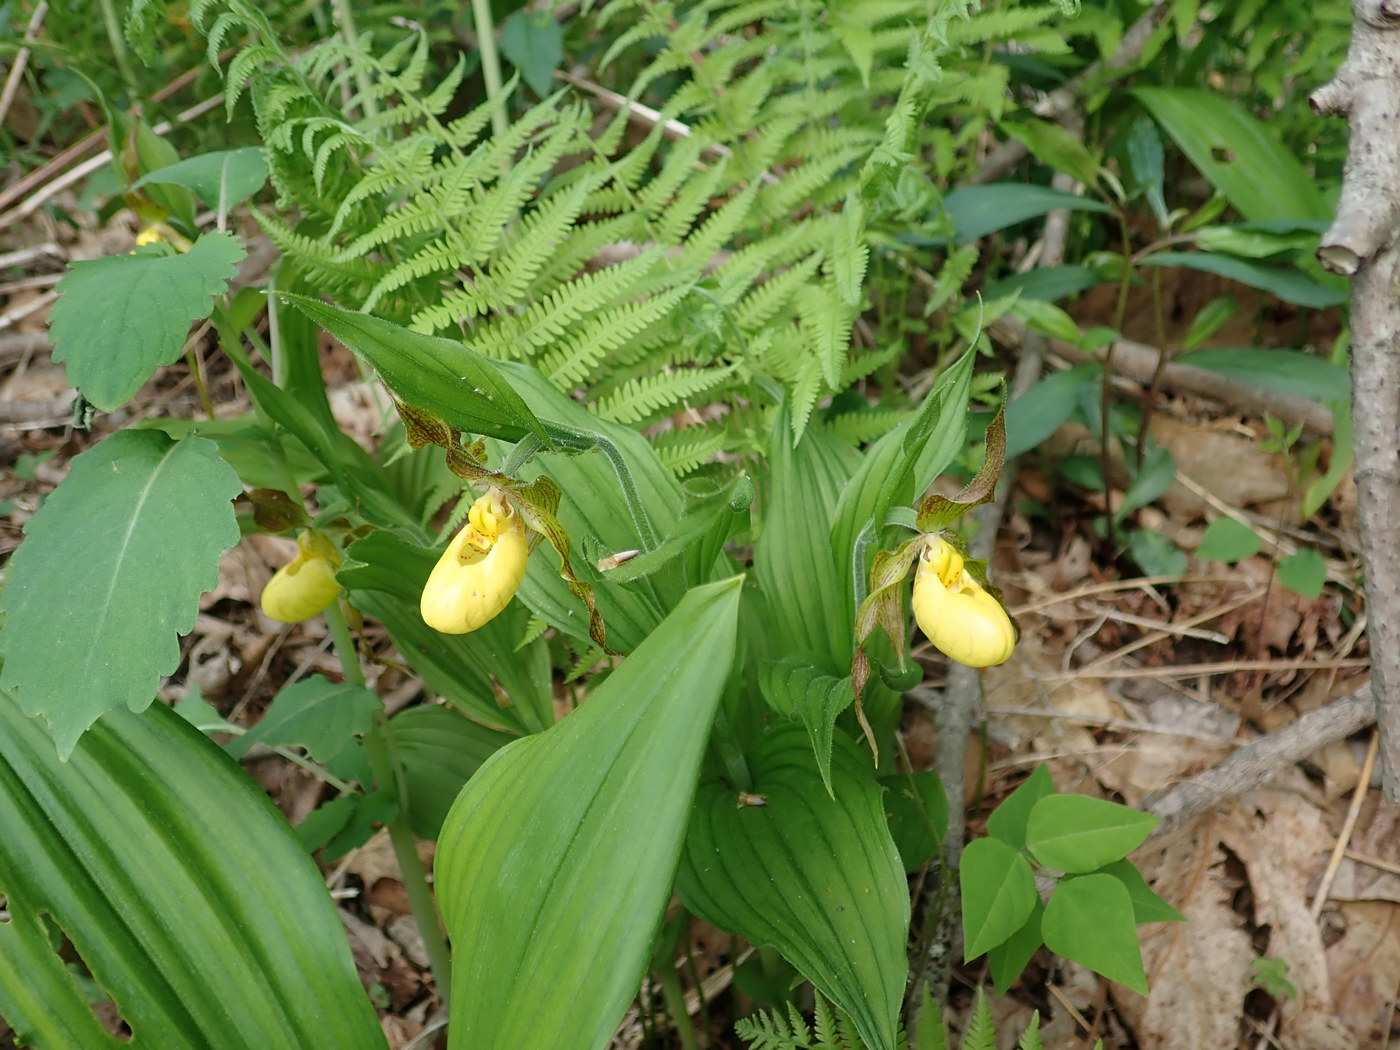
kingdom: Plantae
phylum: Tracheophyta
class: Liliopsida
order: Asparagales
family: Orchidaceae
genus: Cypripedium
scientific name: Cypripedium parviflorum
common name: American yellow lady's-slipper
